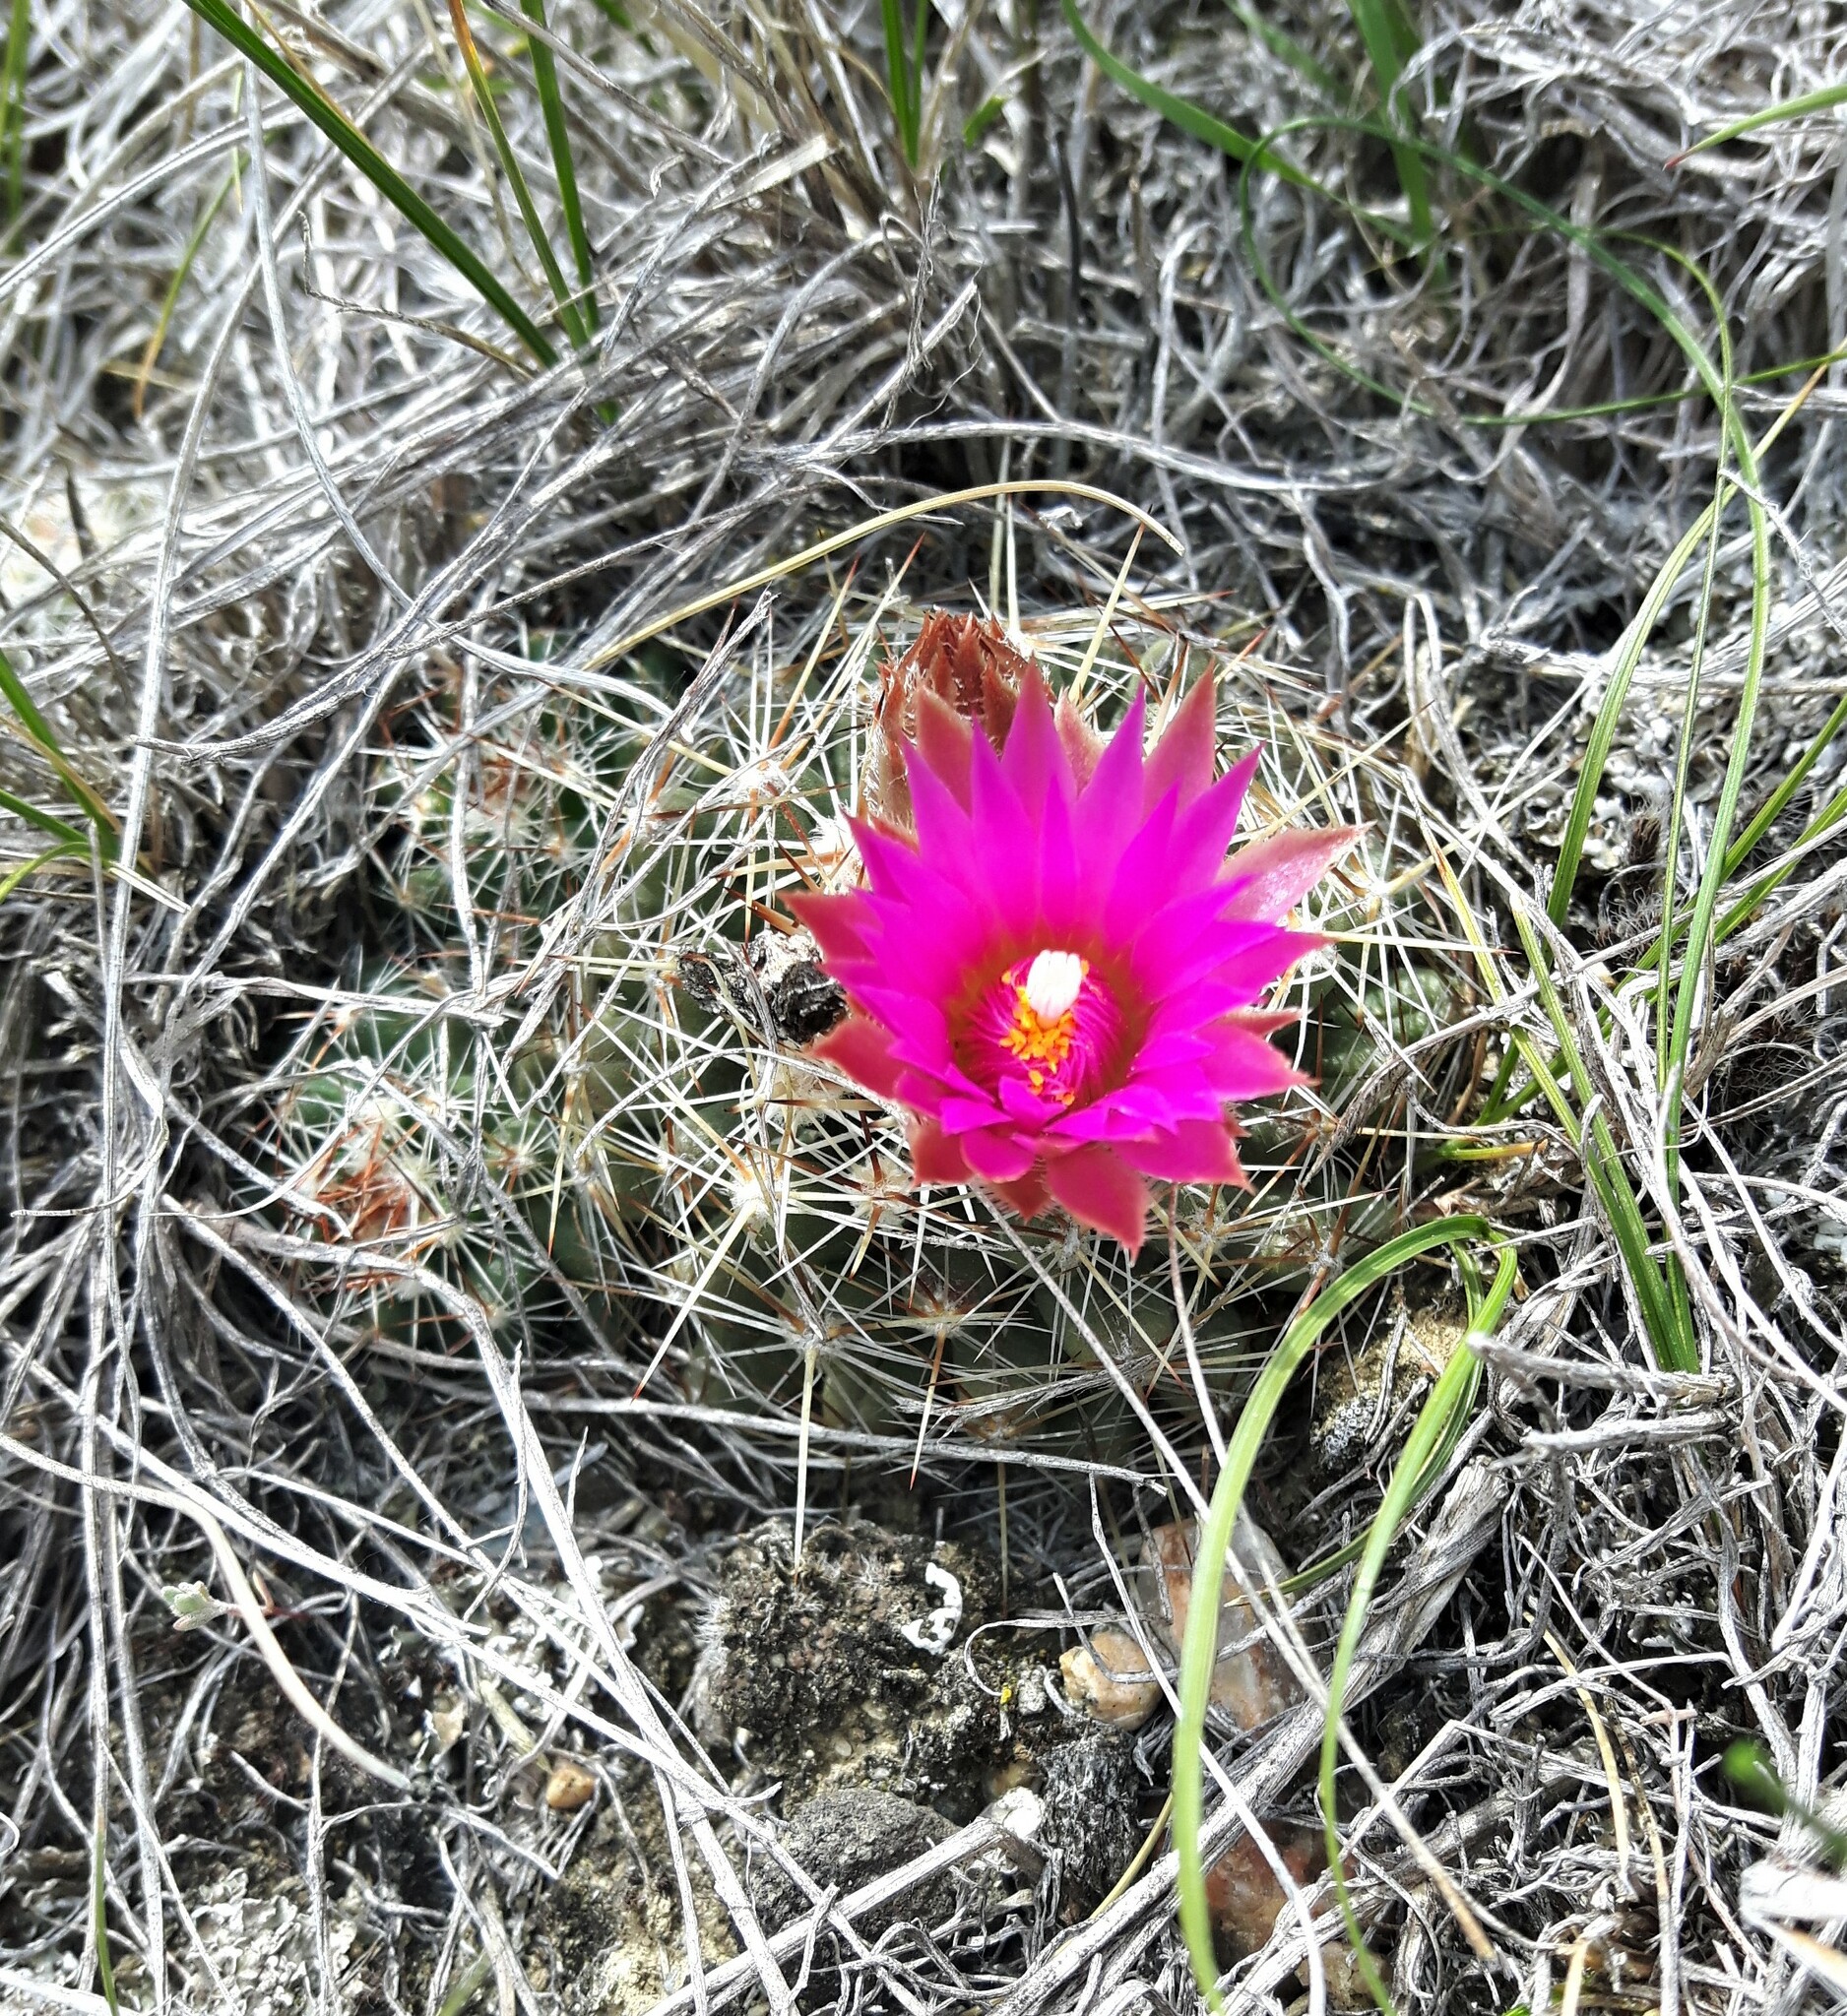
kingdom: Plantae
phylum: Tracheophyta
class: Magnoliopsida
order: Caryophyllales
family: Cactaceae
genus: Pelecyphora
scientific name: Pelecyphora vivipara
